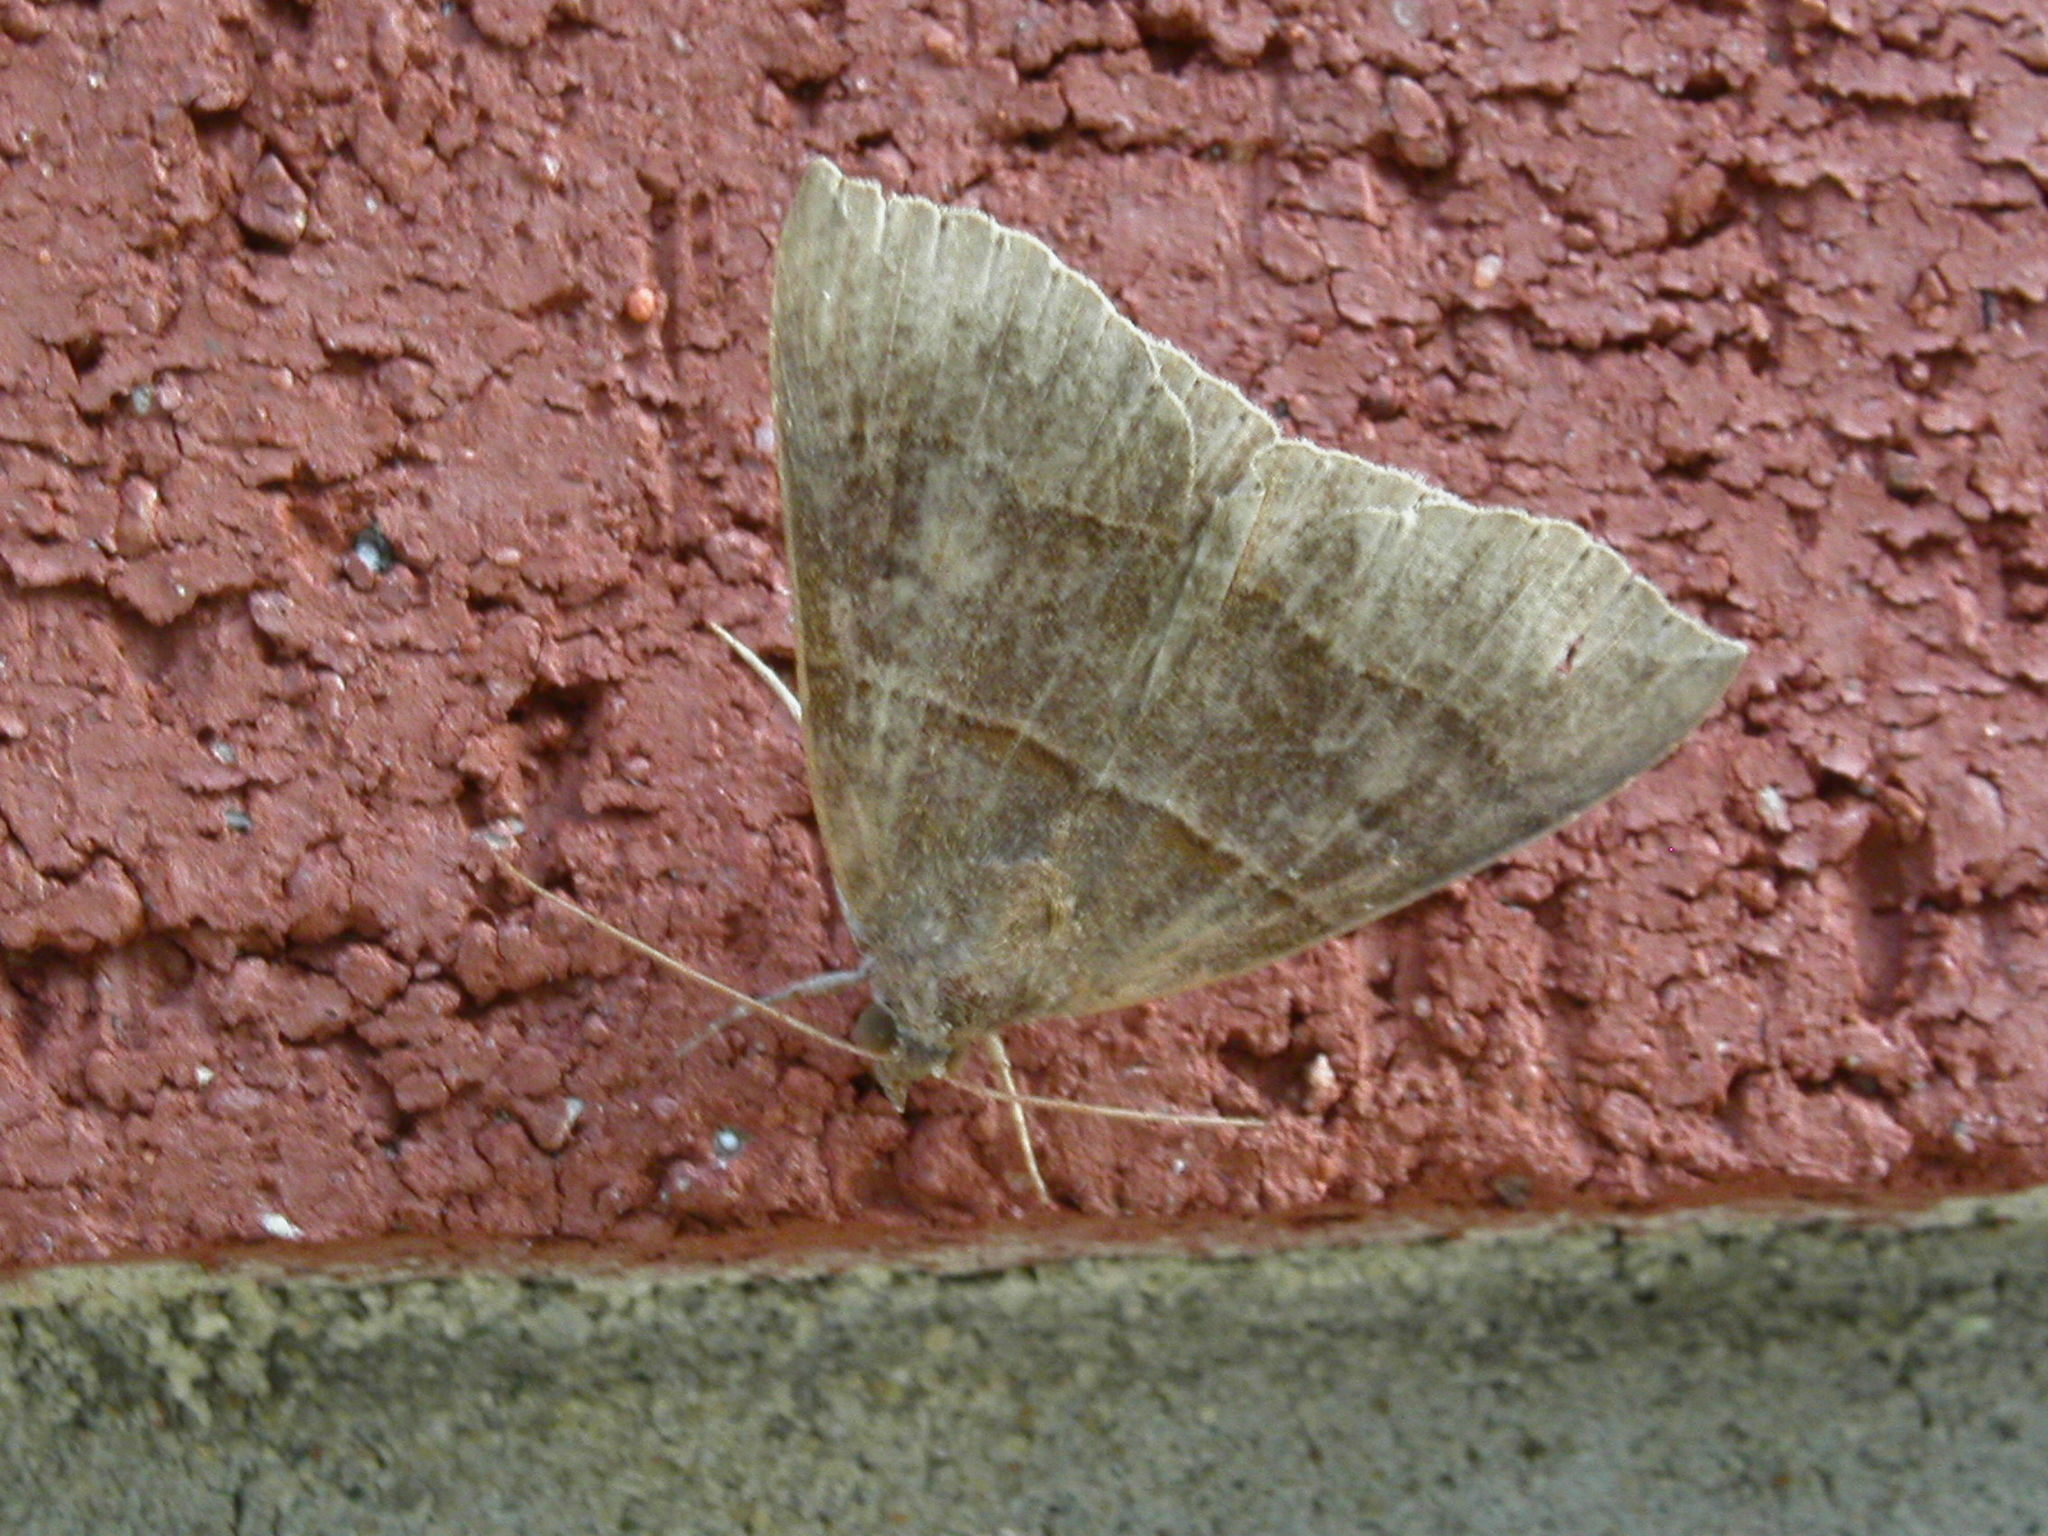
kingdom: Animalia
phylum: Arthropoda
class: Insecta
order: Lepidoptera
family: Erebidae
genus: Parallelia
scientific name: Parallelia bistriaris
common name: Maple looper moth
